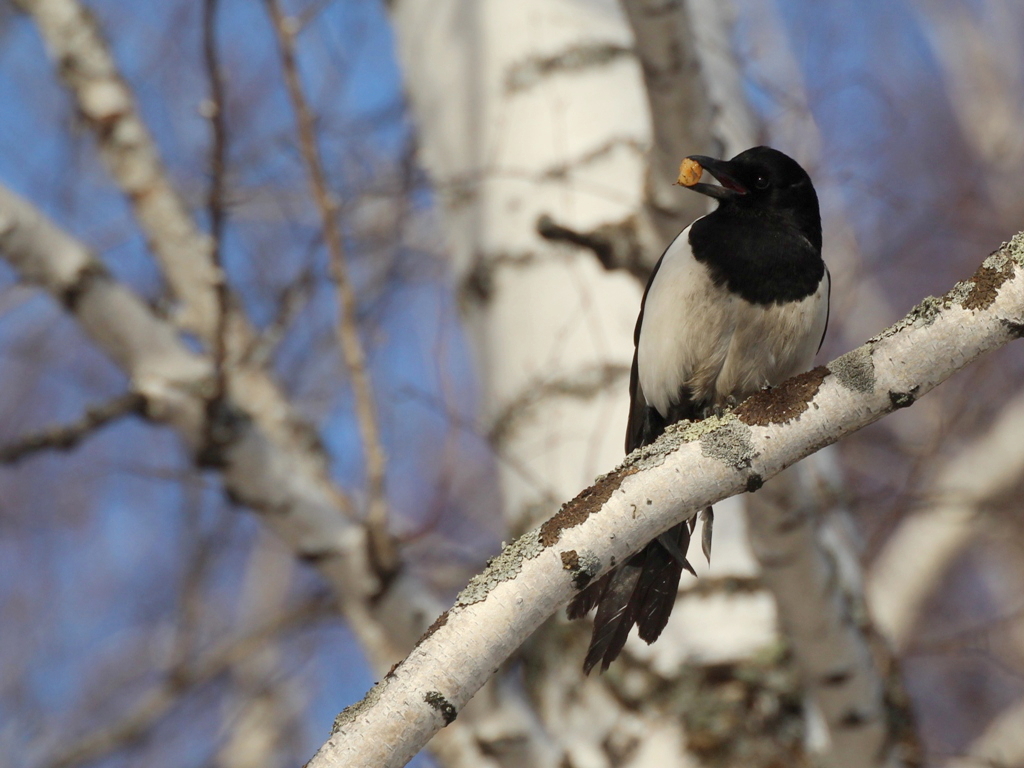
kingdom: Animalia
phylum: Chordata
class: Aves
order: Passeriformes
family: Corvidae
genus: Pica
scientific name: Pica pica
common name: Eurasian magpie
